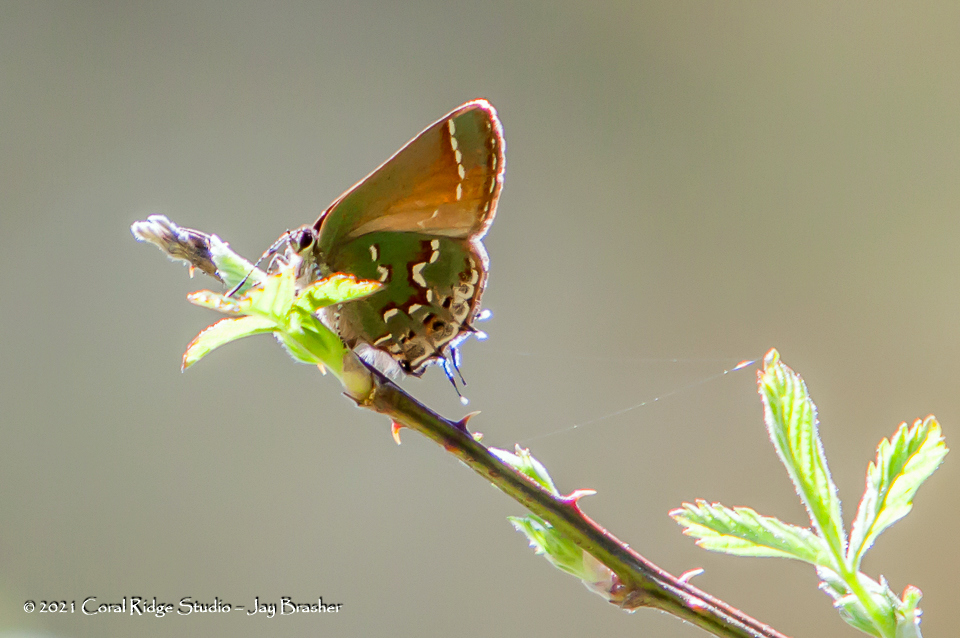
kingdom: Animalia
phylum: Arthropoda
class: Insecta
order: Lepidoptera
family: Lycaenidae
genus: Mitoura
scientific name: Mitoura gryneus
